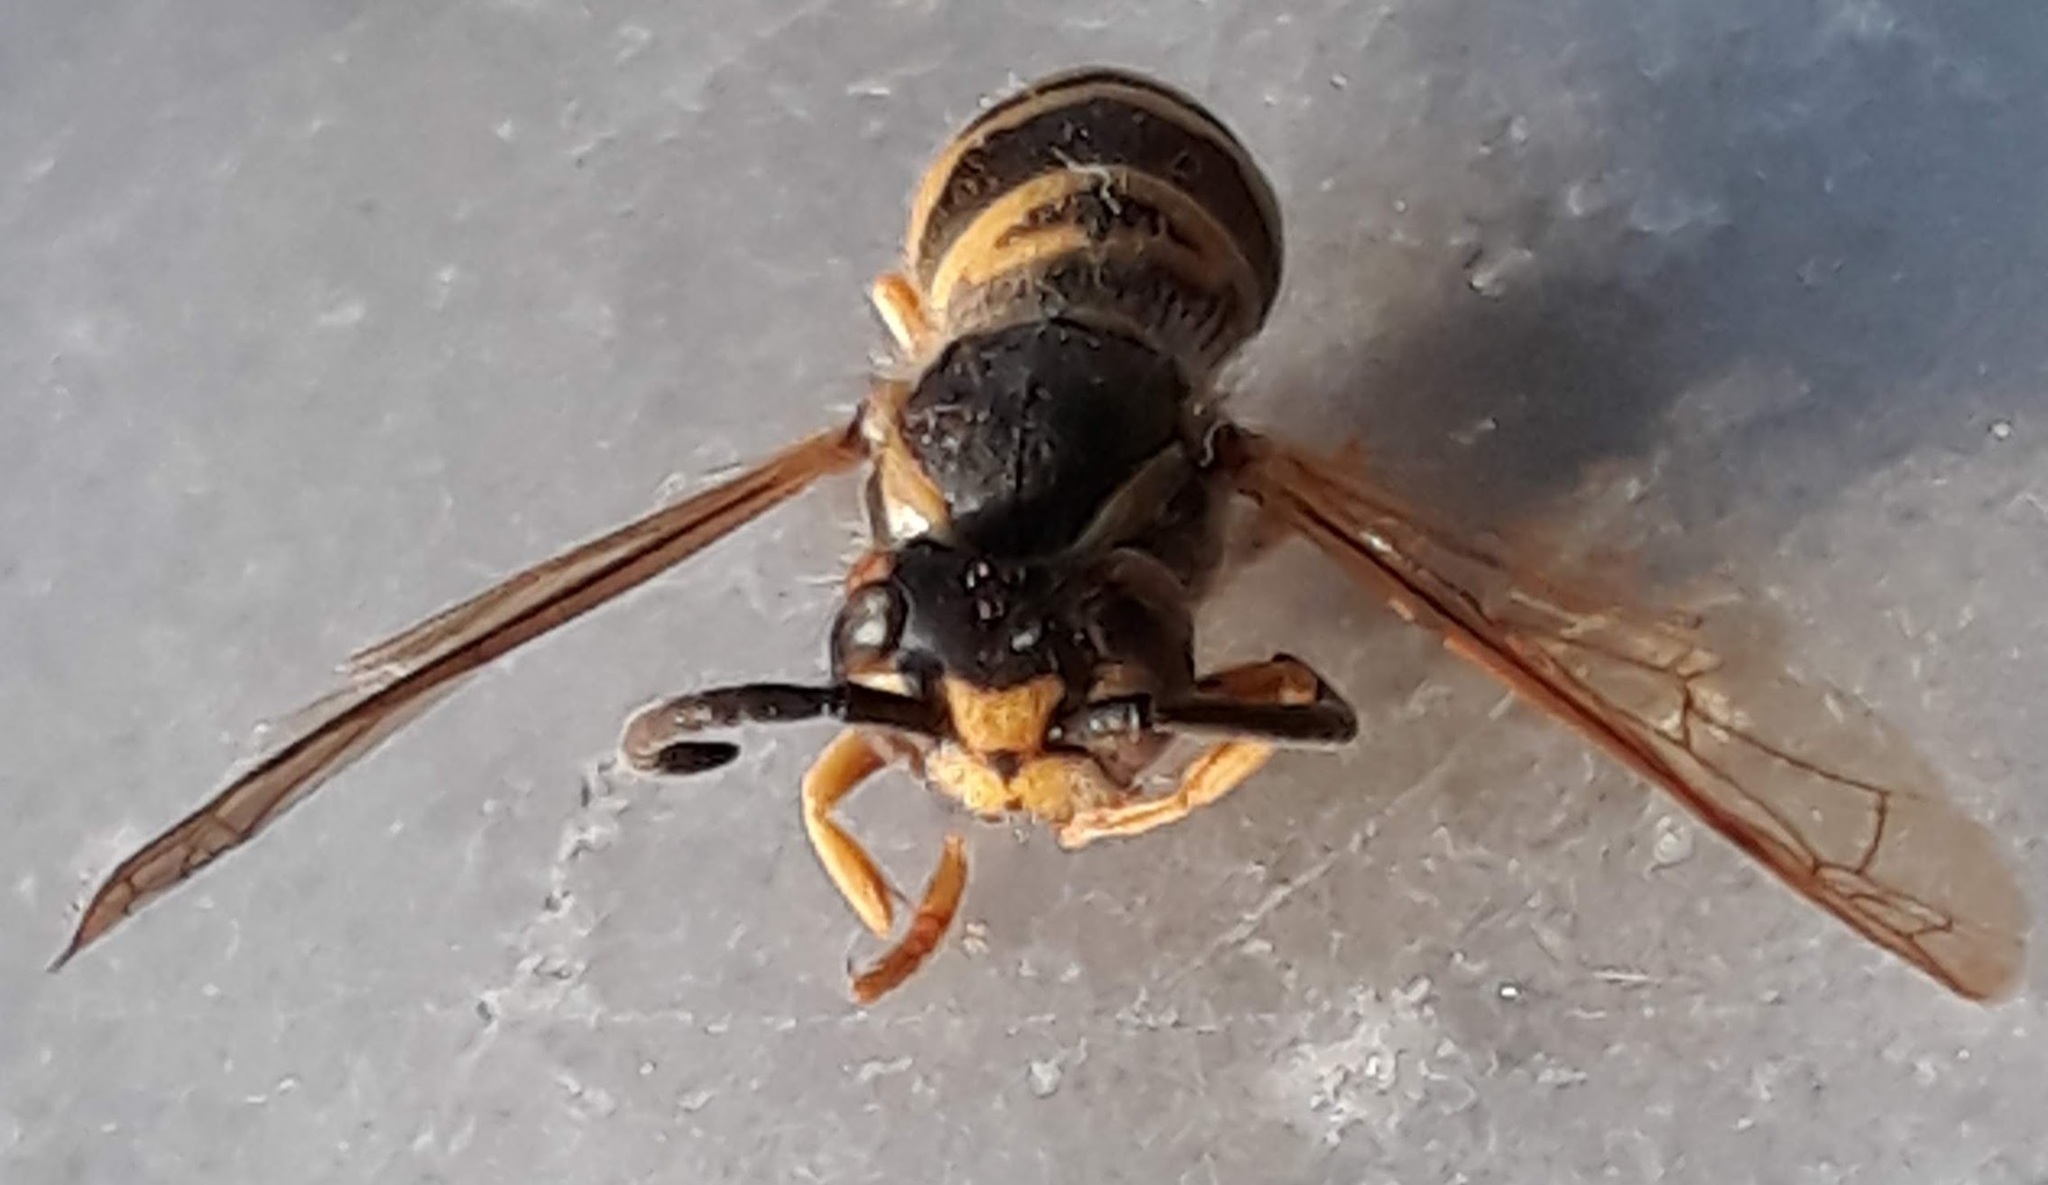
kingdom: Animalia
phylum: Arthropoda
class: Insecta
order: Hymenoptera
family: Vespidae
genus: Vespula
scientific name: Vespula maculifrons
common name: Eastern yellowjacket
